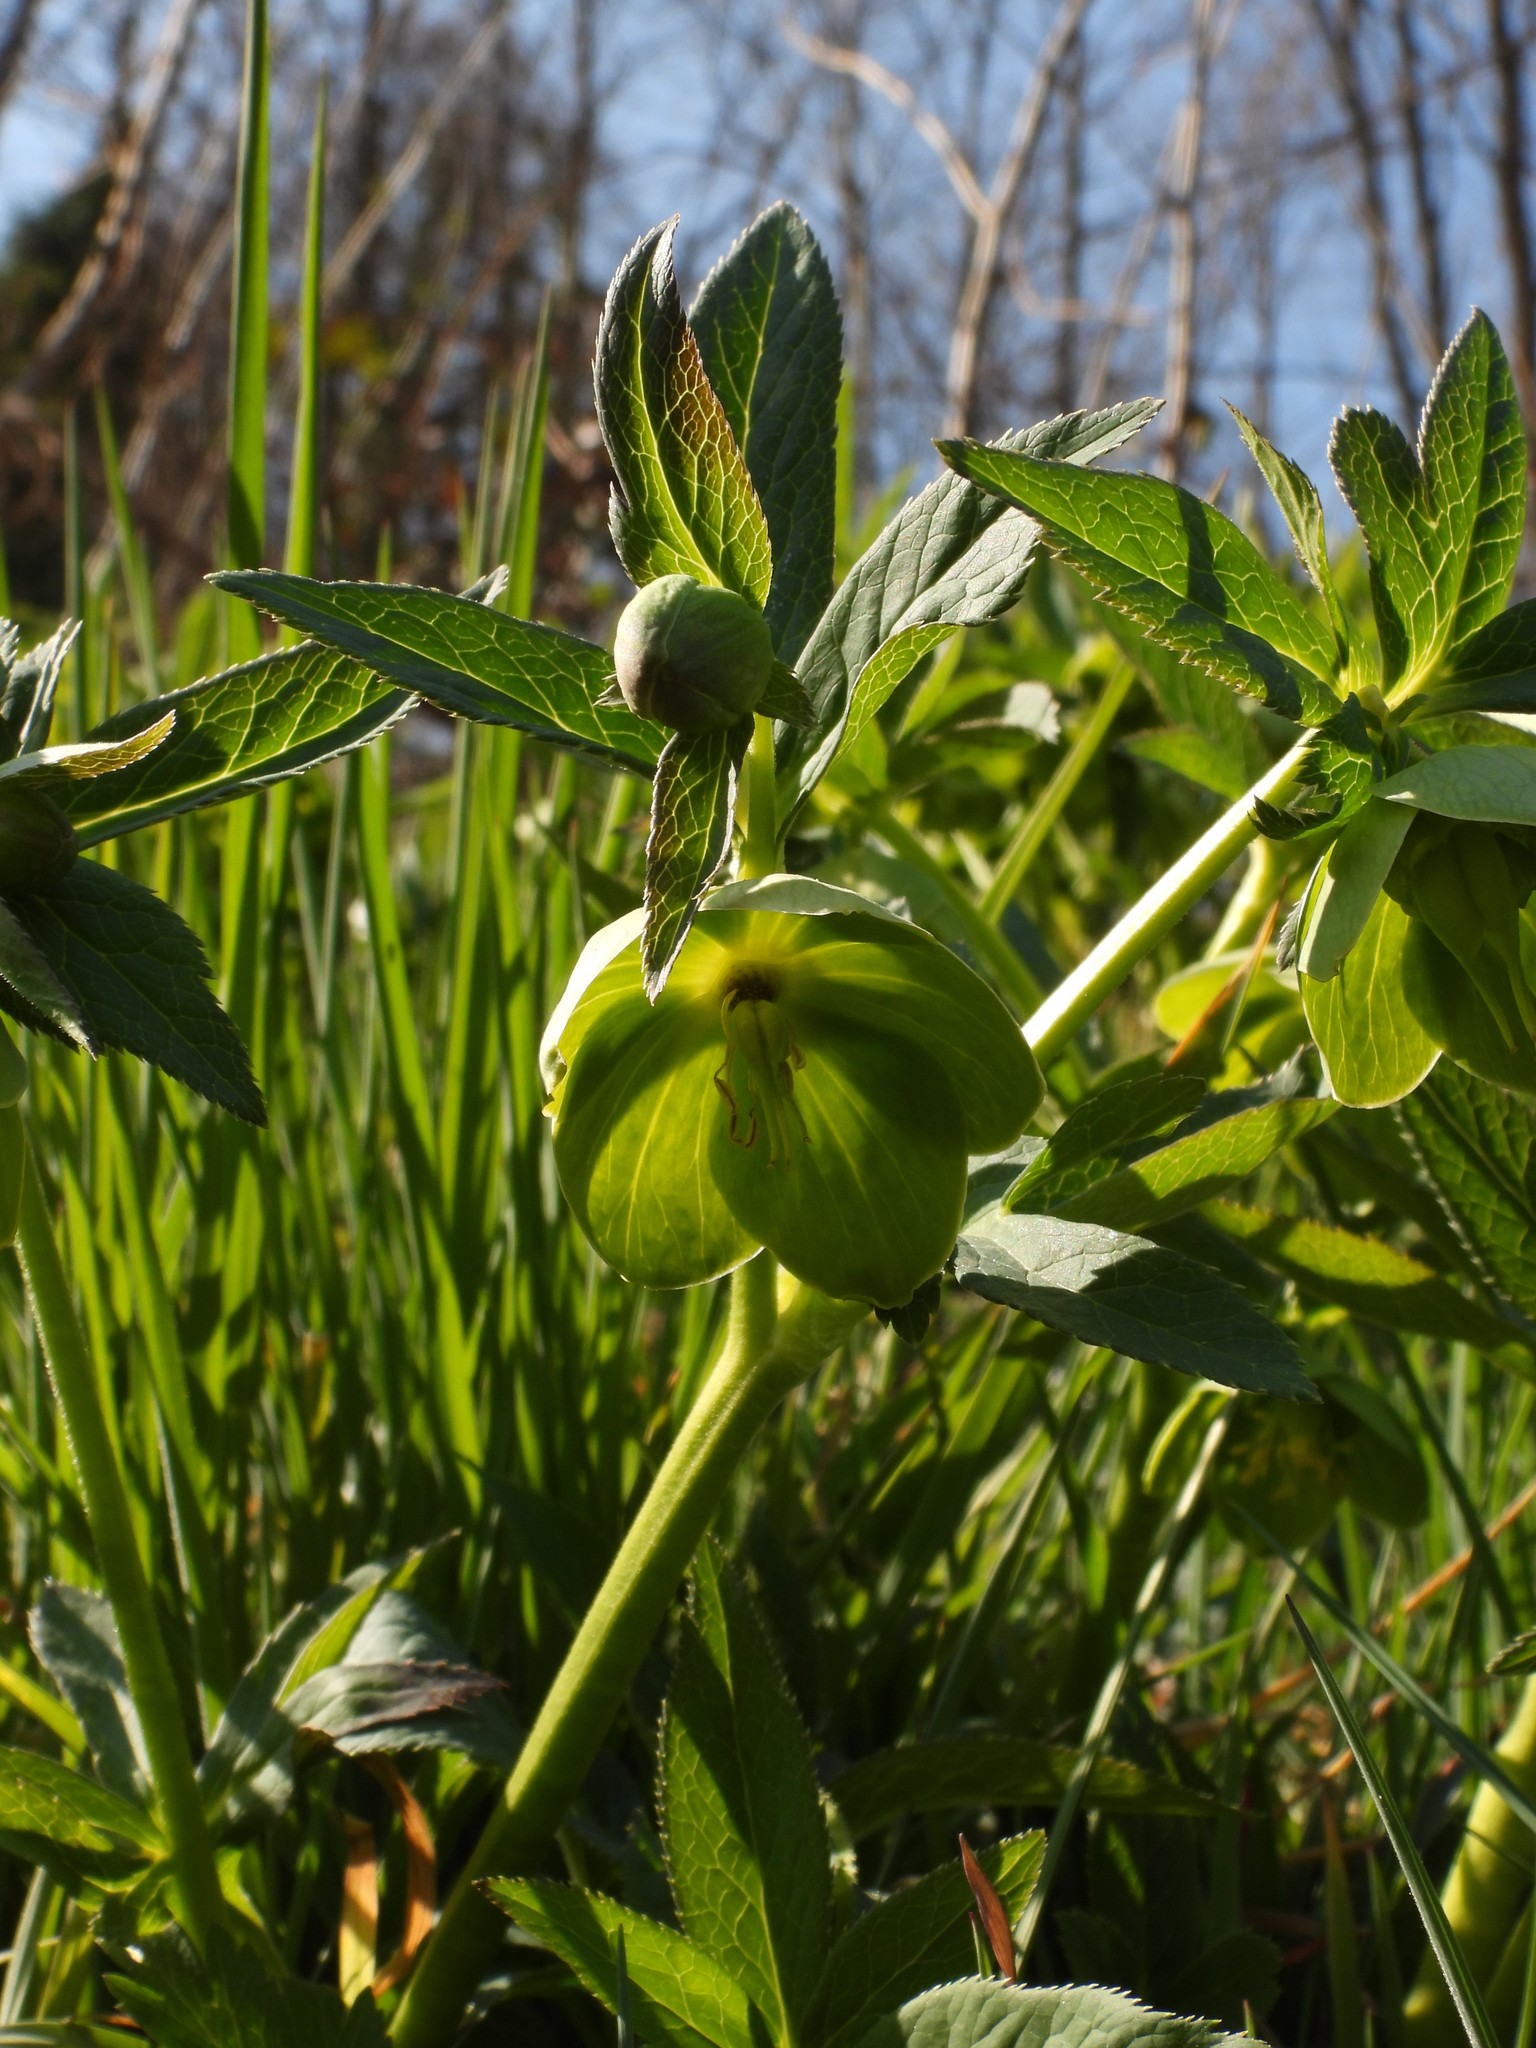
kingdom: Plantae
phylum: Tracheophyta
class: Magnoliopsida
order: Ranunculales
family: Ranunculaceae
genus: Helleborus
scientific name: Helleborus viridis
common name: Green hellebore
